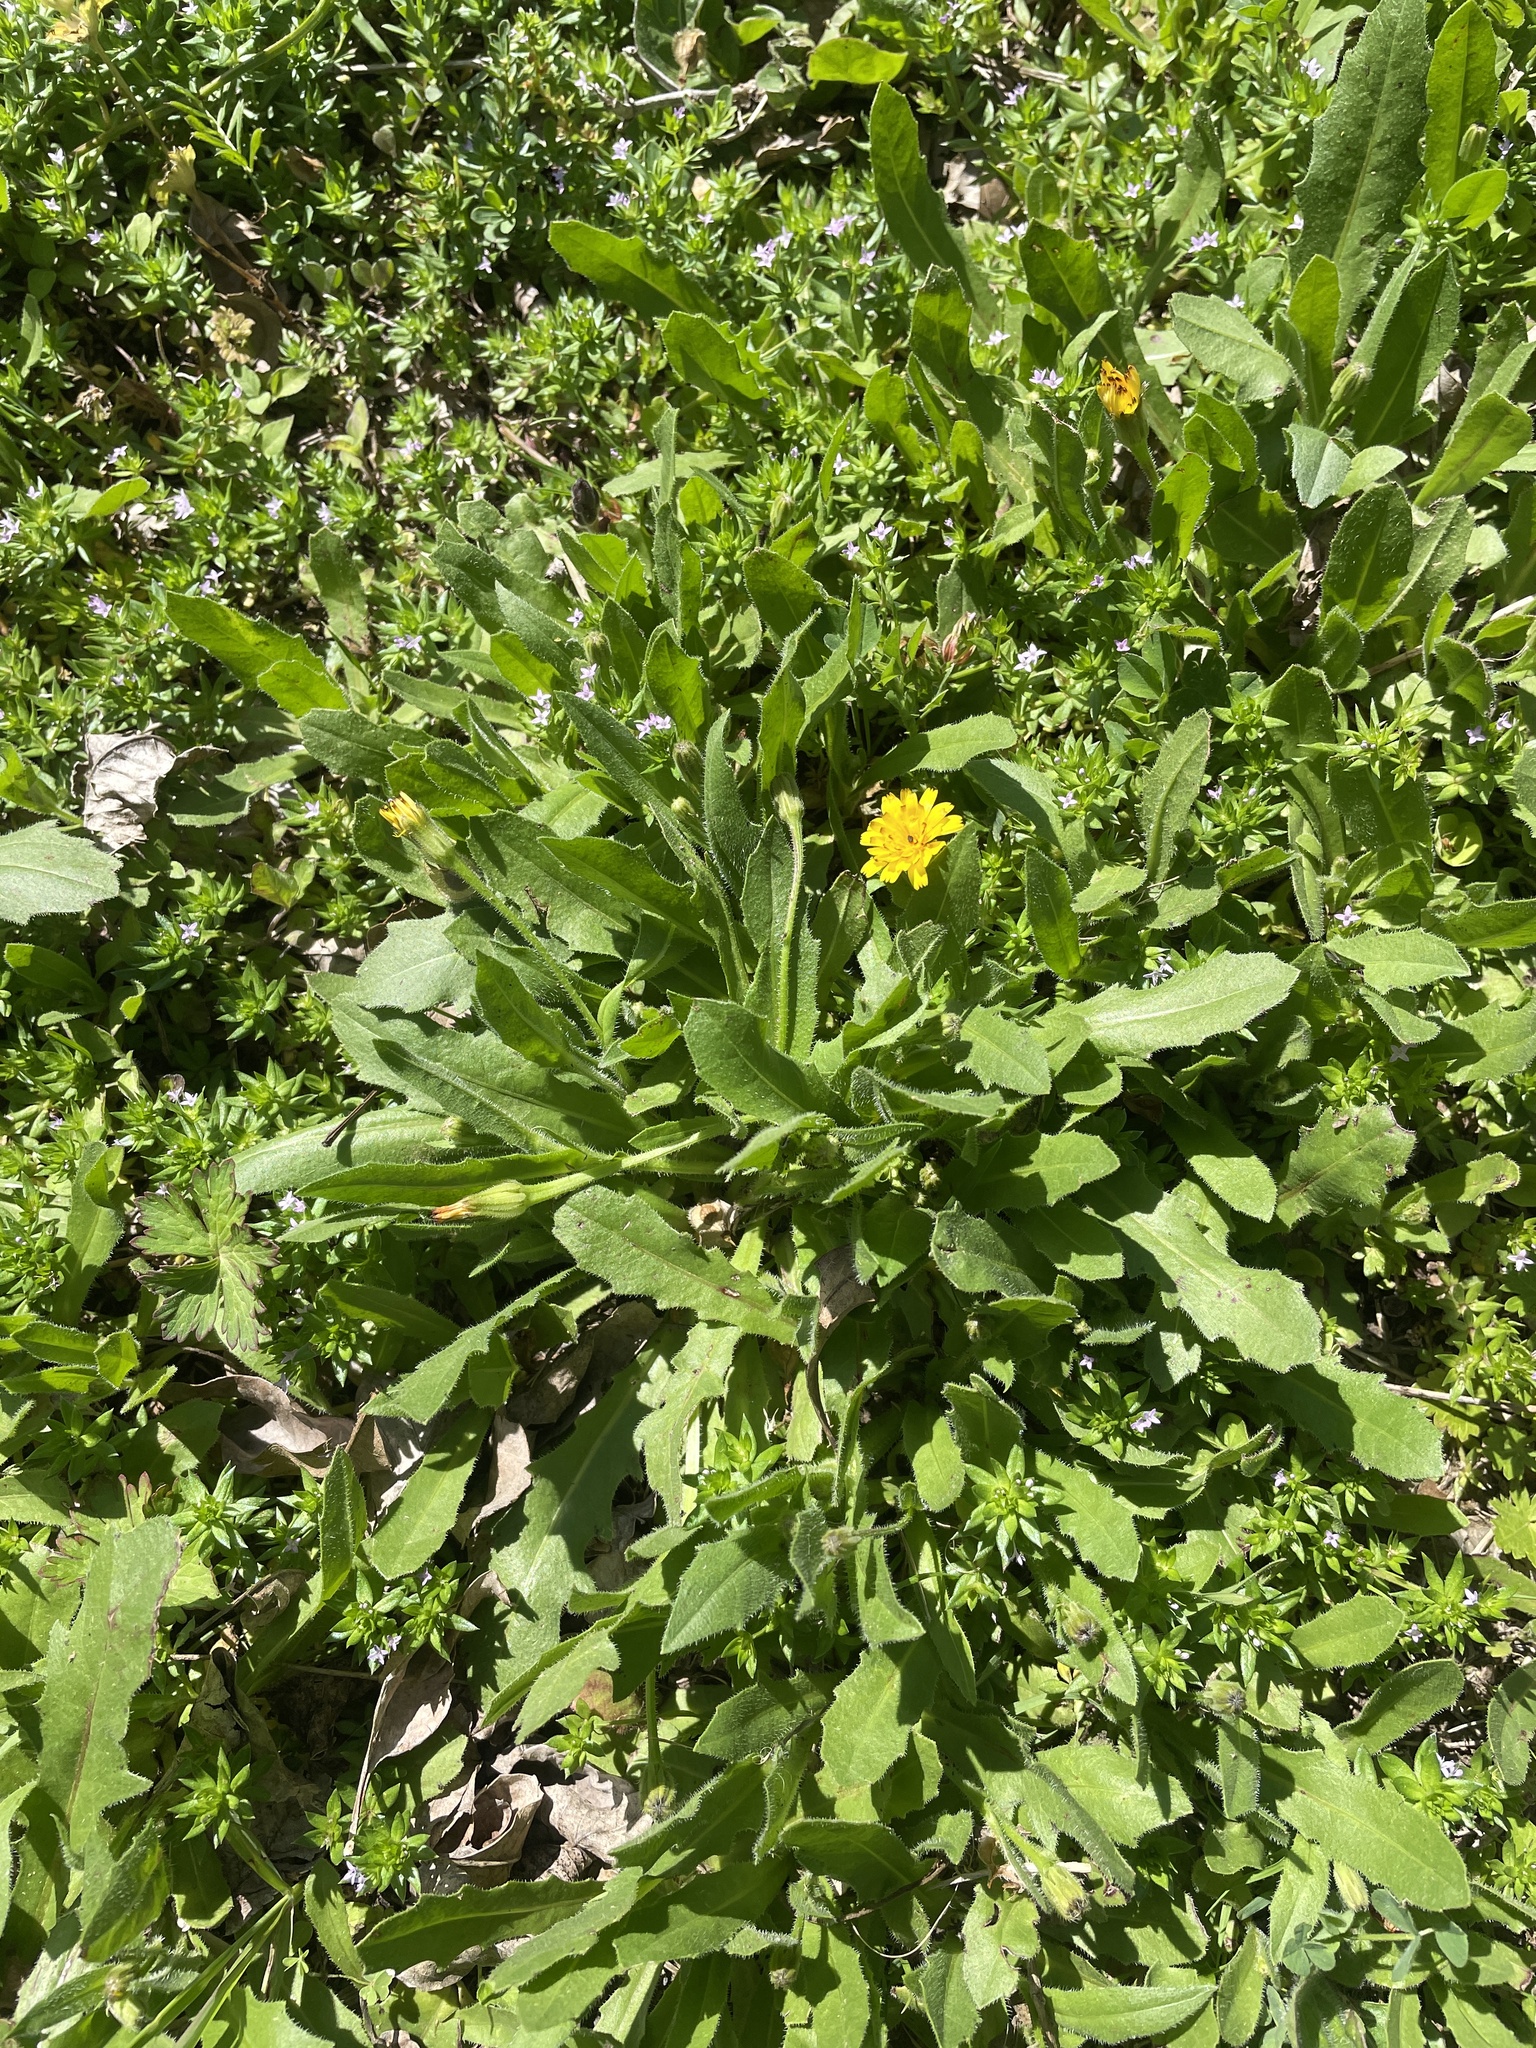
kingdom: Plantae
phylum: Tracheophyta
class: Magnoliopsida
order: Asterales
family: Asteraceae
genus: Hedypnois
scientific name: Hedypnois rhagadioloides
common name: Cretan weed
